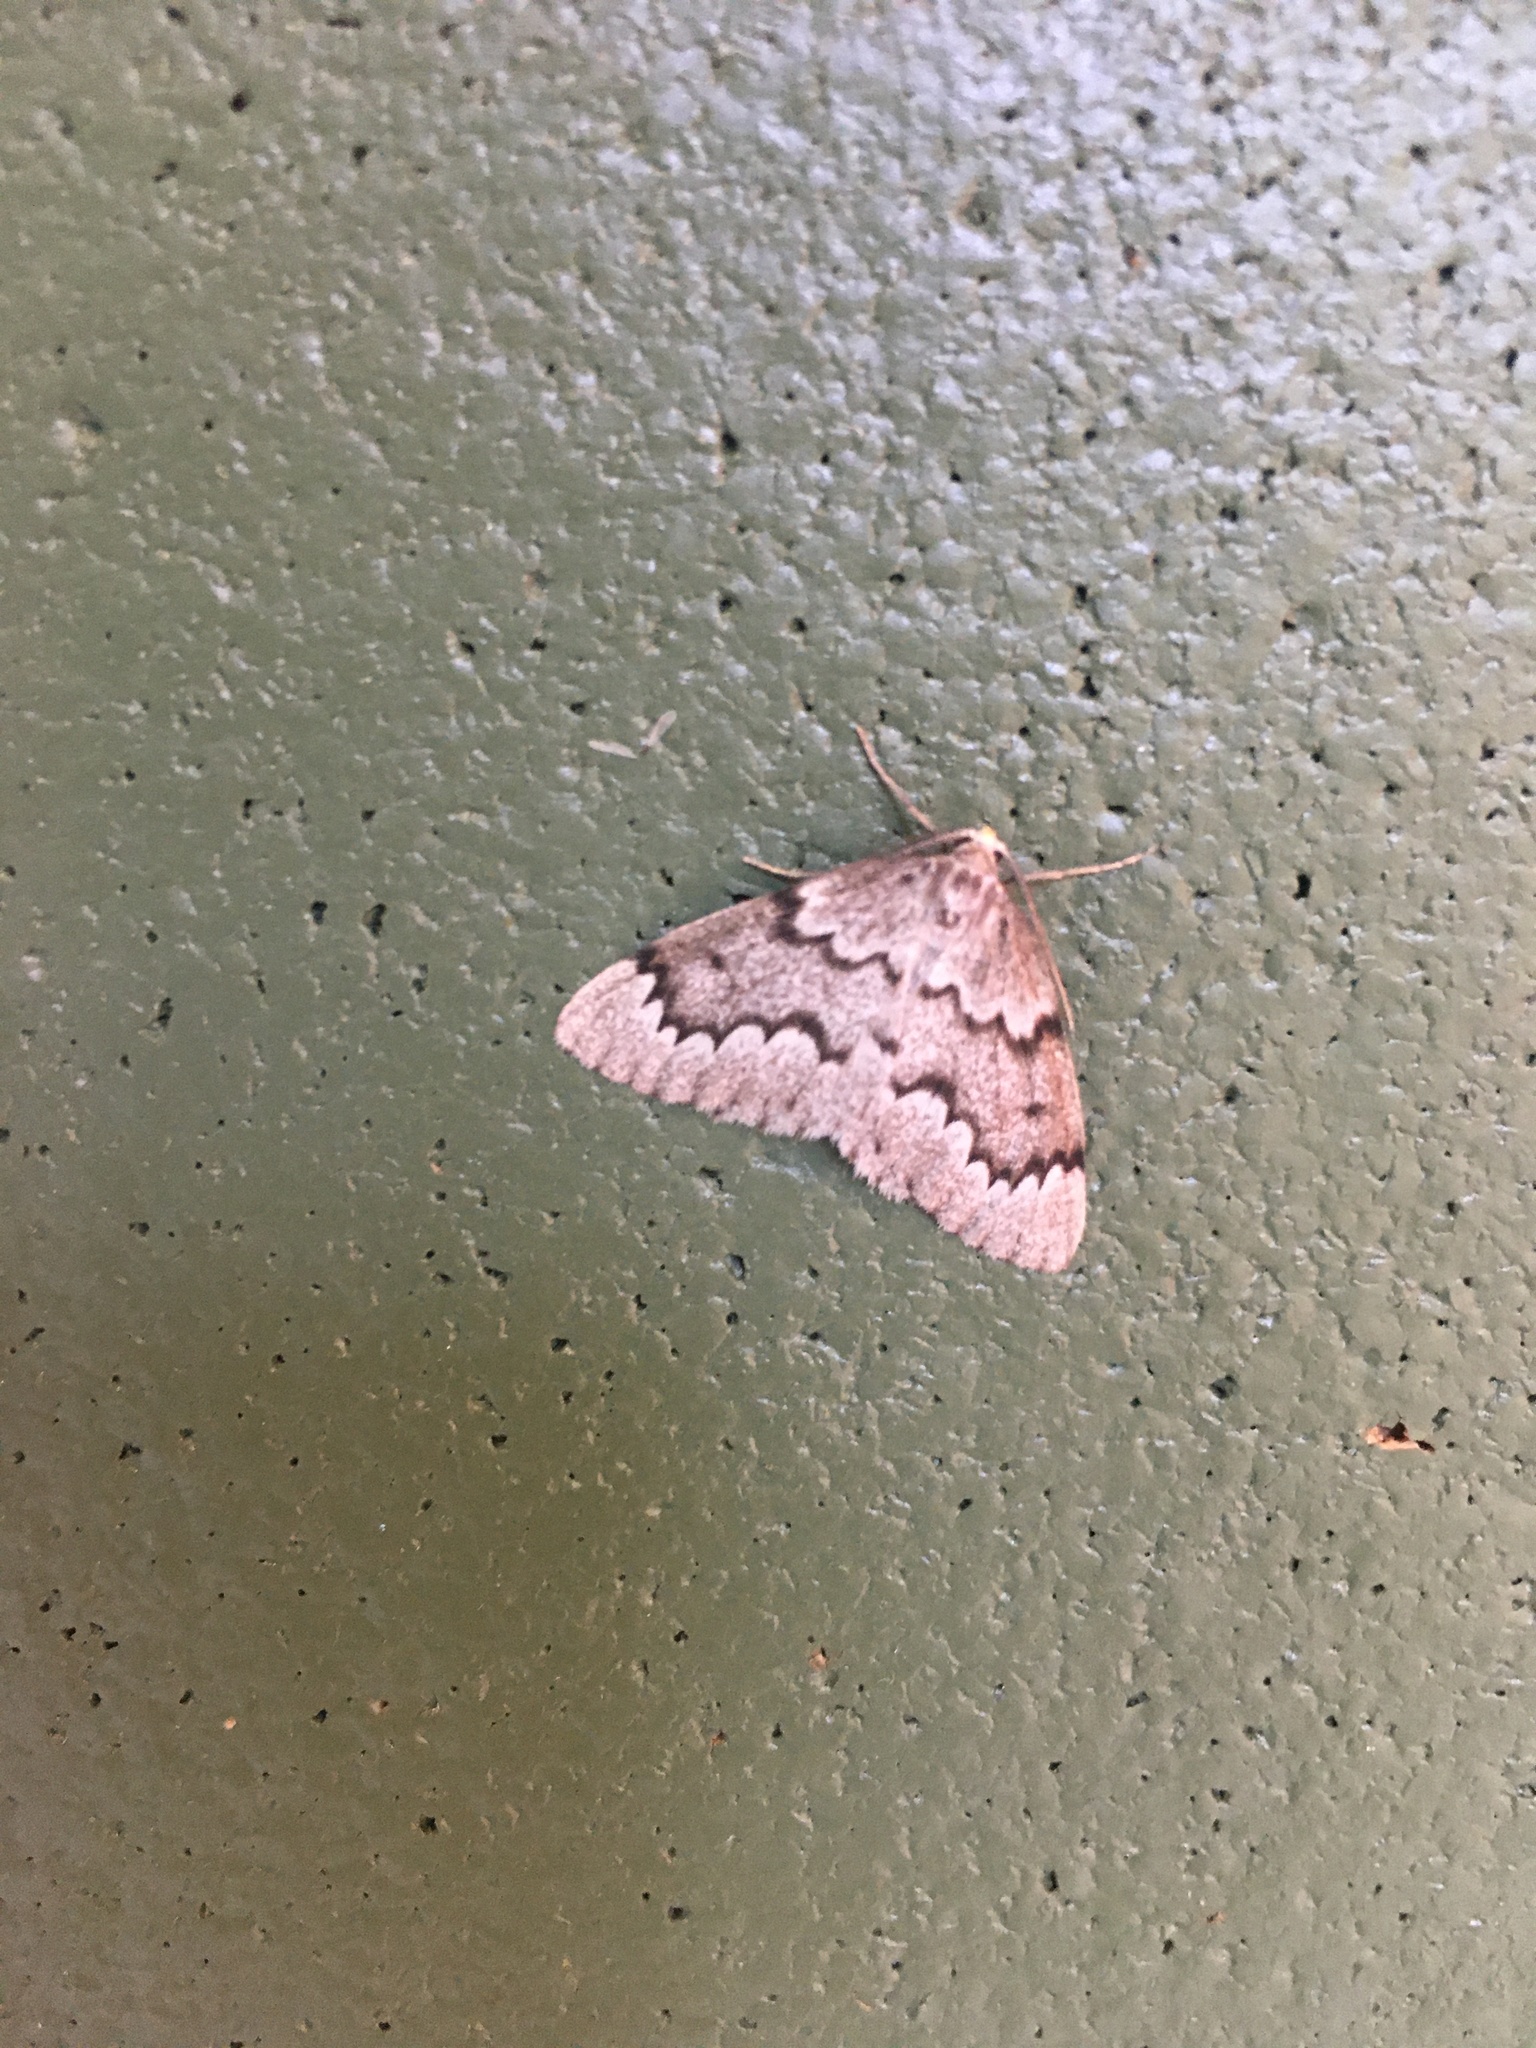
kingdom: Animalia
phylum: Arthropoda
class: Insecta
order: Lepidoptera
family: Geometridae
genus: Nepytia
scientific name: Nepytia canosaria
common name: False hemlock looper
